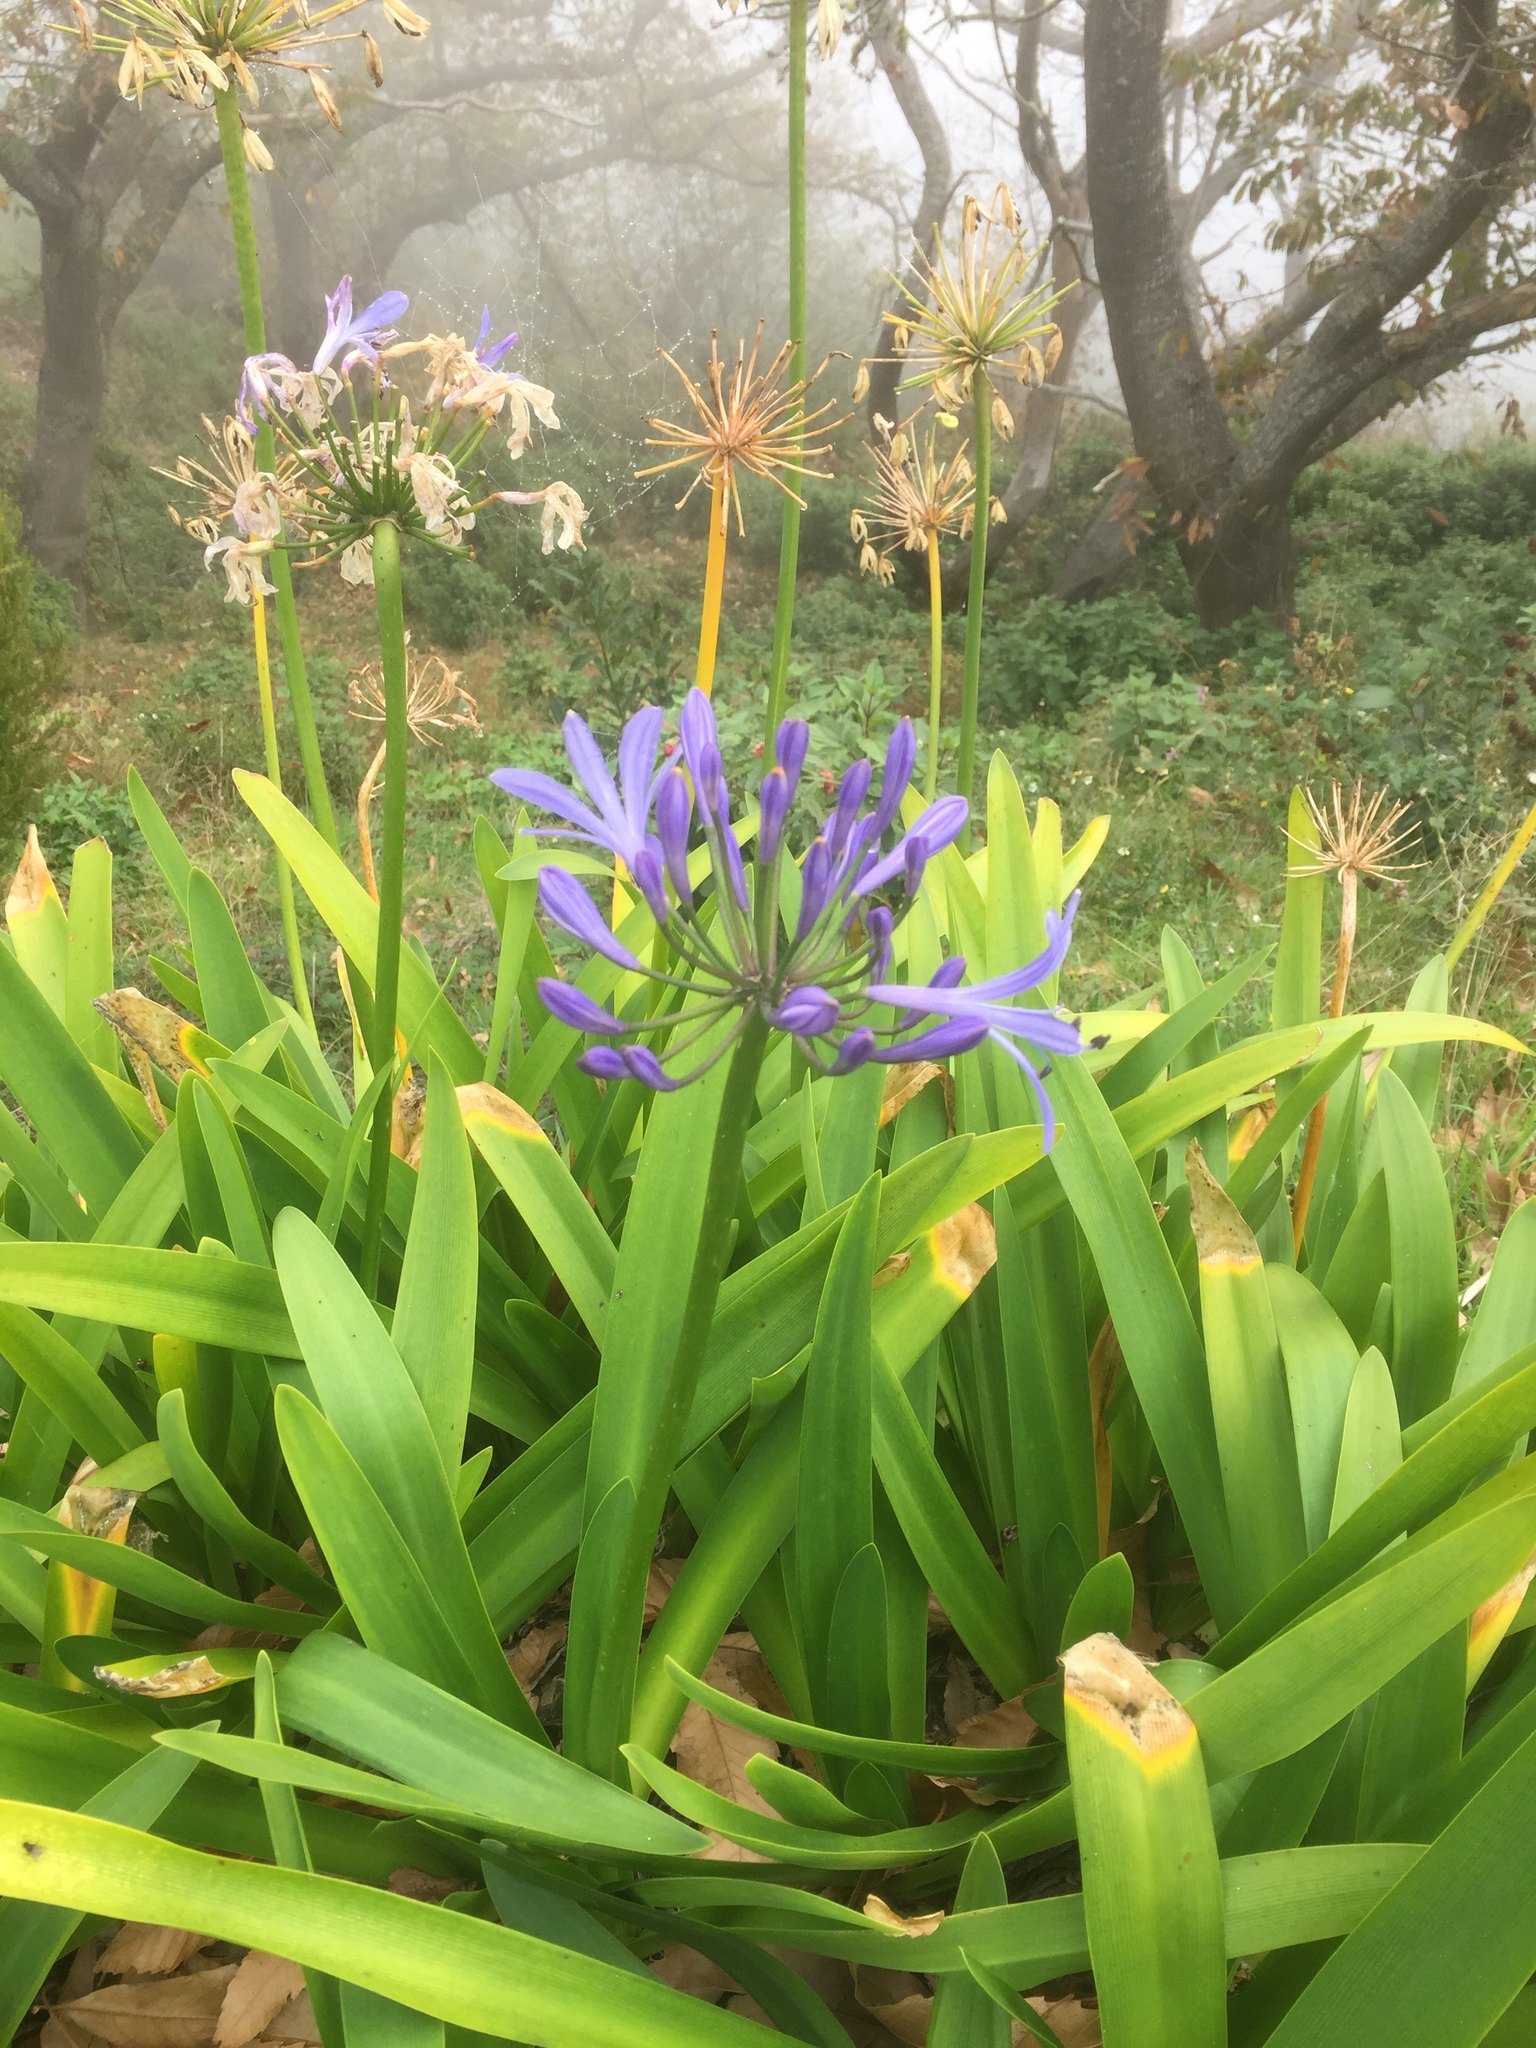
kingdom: Plantae
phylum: Tracheophyta
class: Liliopsida
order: Asparagales
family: Amaryllidaceae
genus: Agapanthus
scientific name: Agapanthus praecox
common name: African-lily
